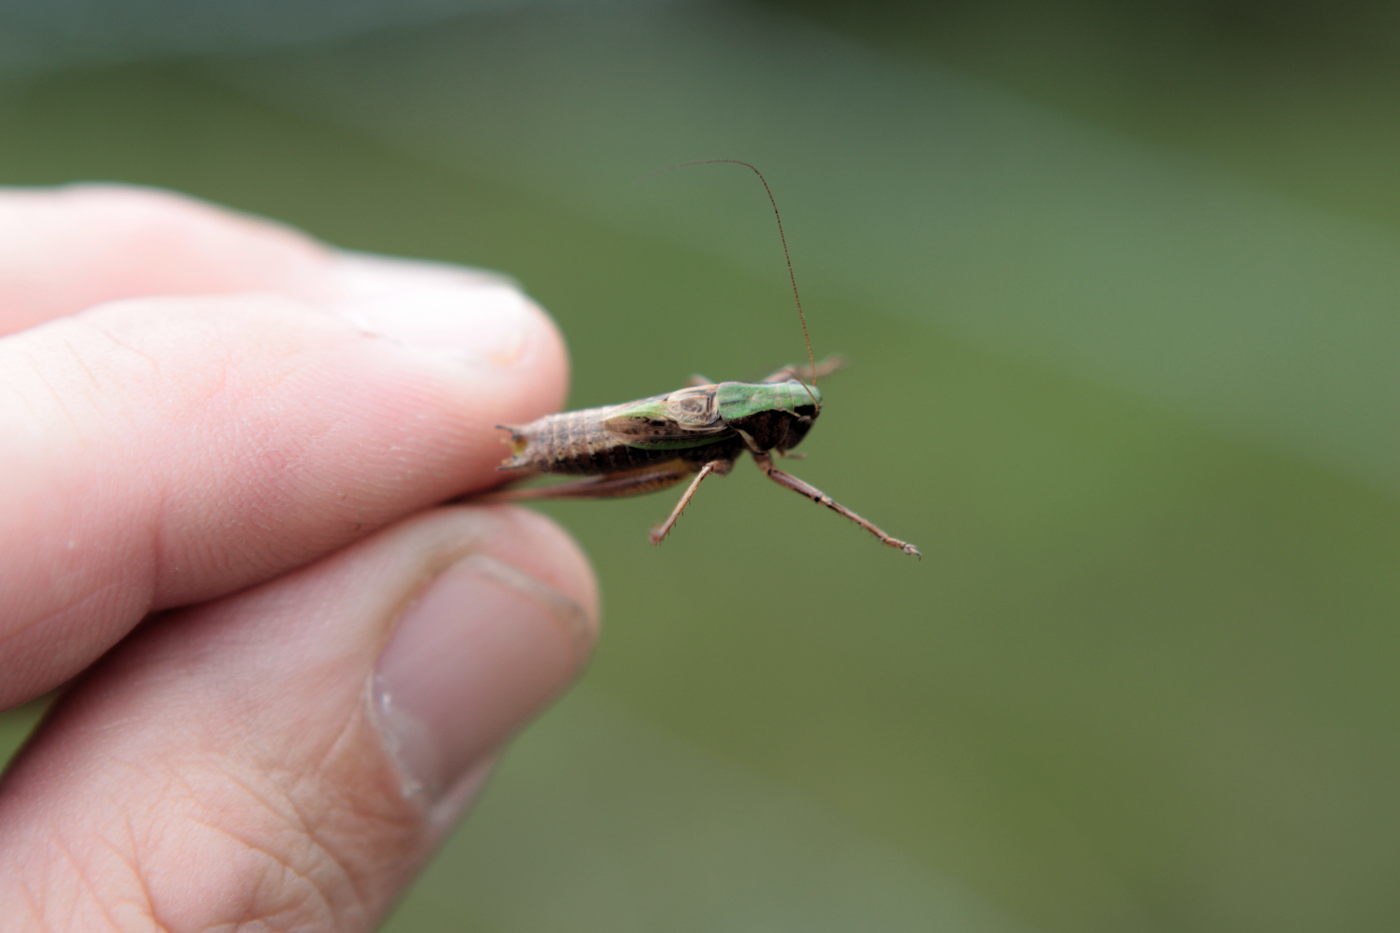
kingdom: Animalia
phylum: Arthropoda
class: Insecta
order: Orthoptera
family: Tettigoniidae
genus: Metrioptera
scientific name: Metrioptera brachyptera
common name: Bog bush-cricket
